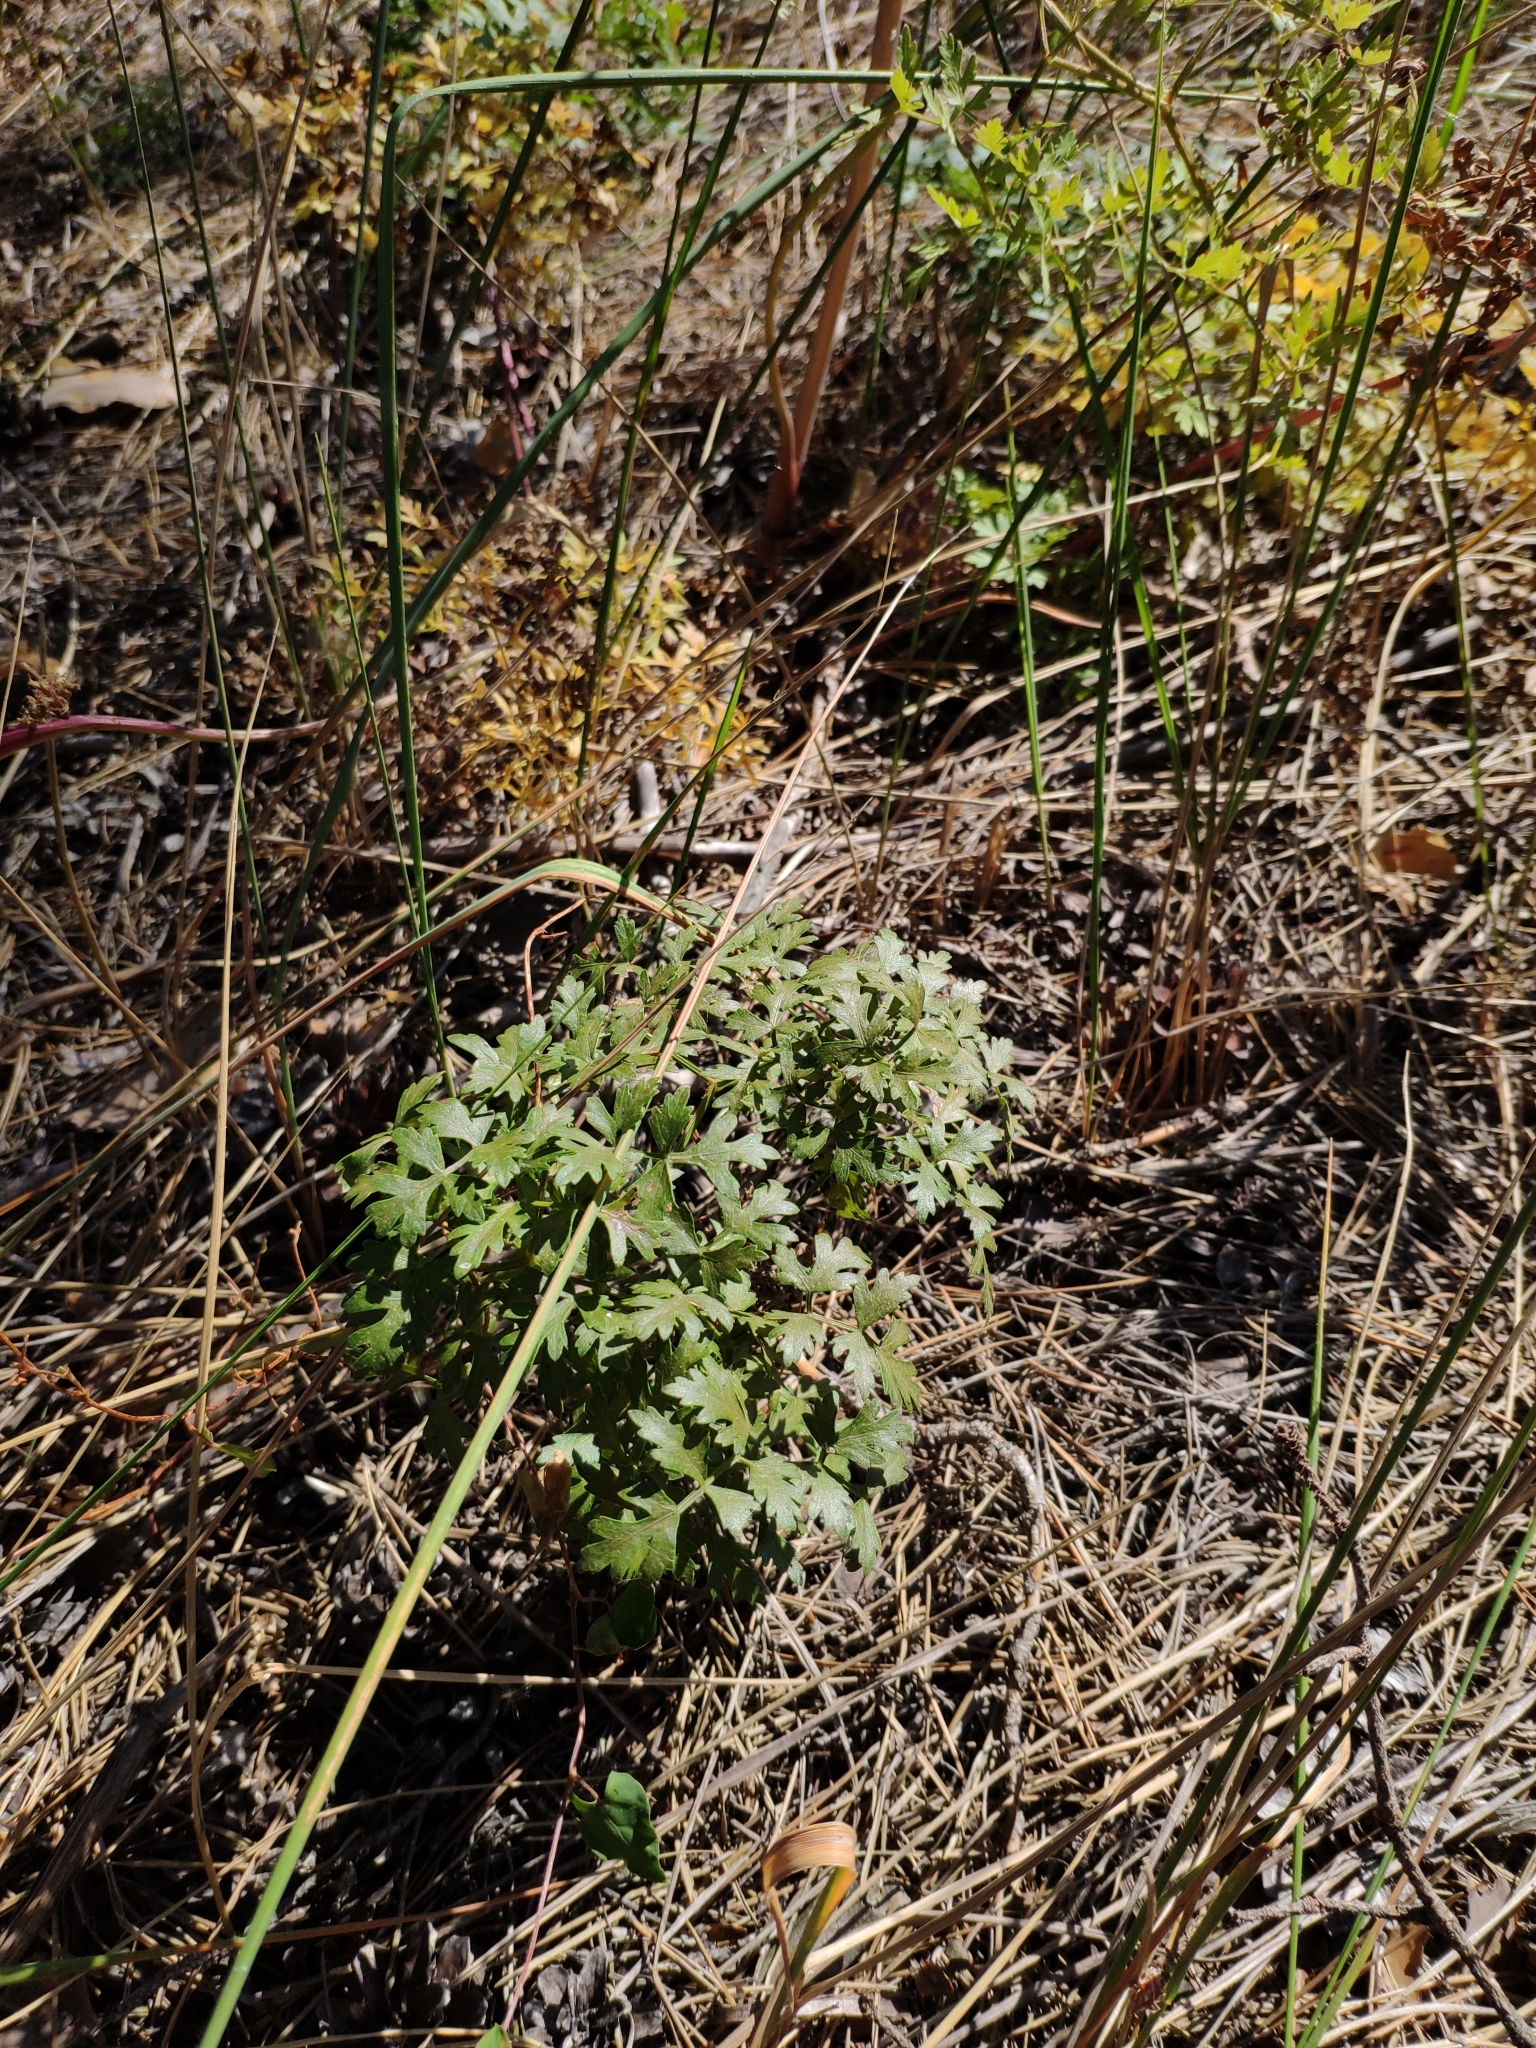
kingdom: Plantae
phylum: Tracheophyta
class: Magnoliopsida
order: Apiales
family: Apiaceae
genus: Oreoselinum
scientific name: Oreoselinum nigrum
